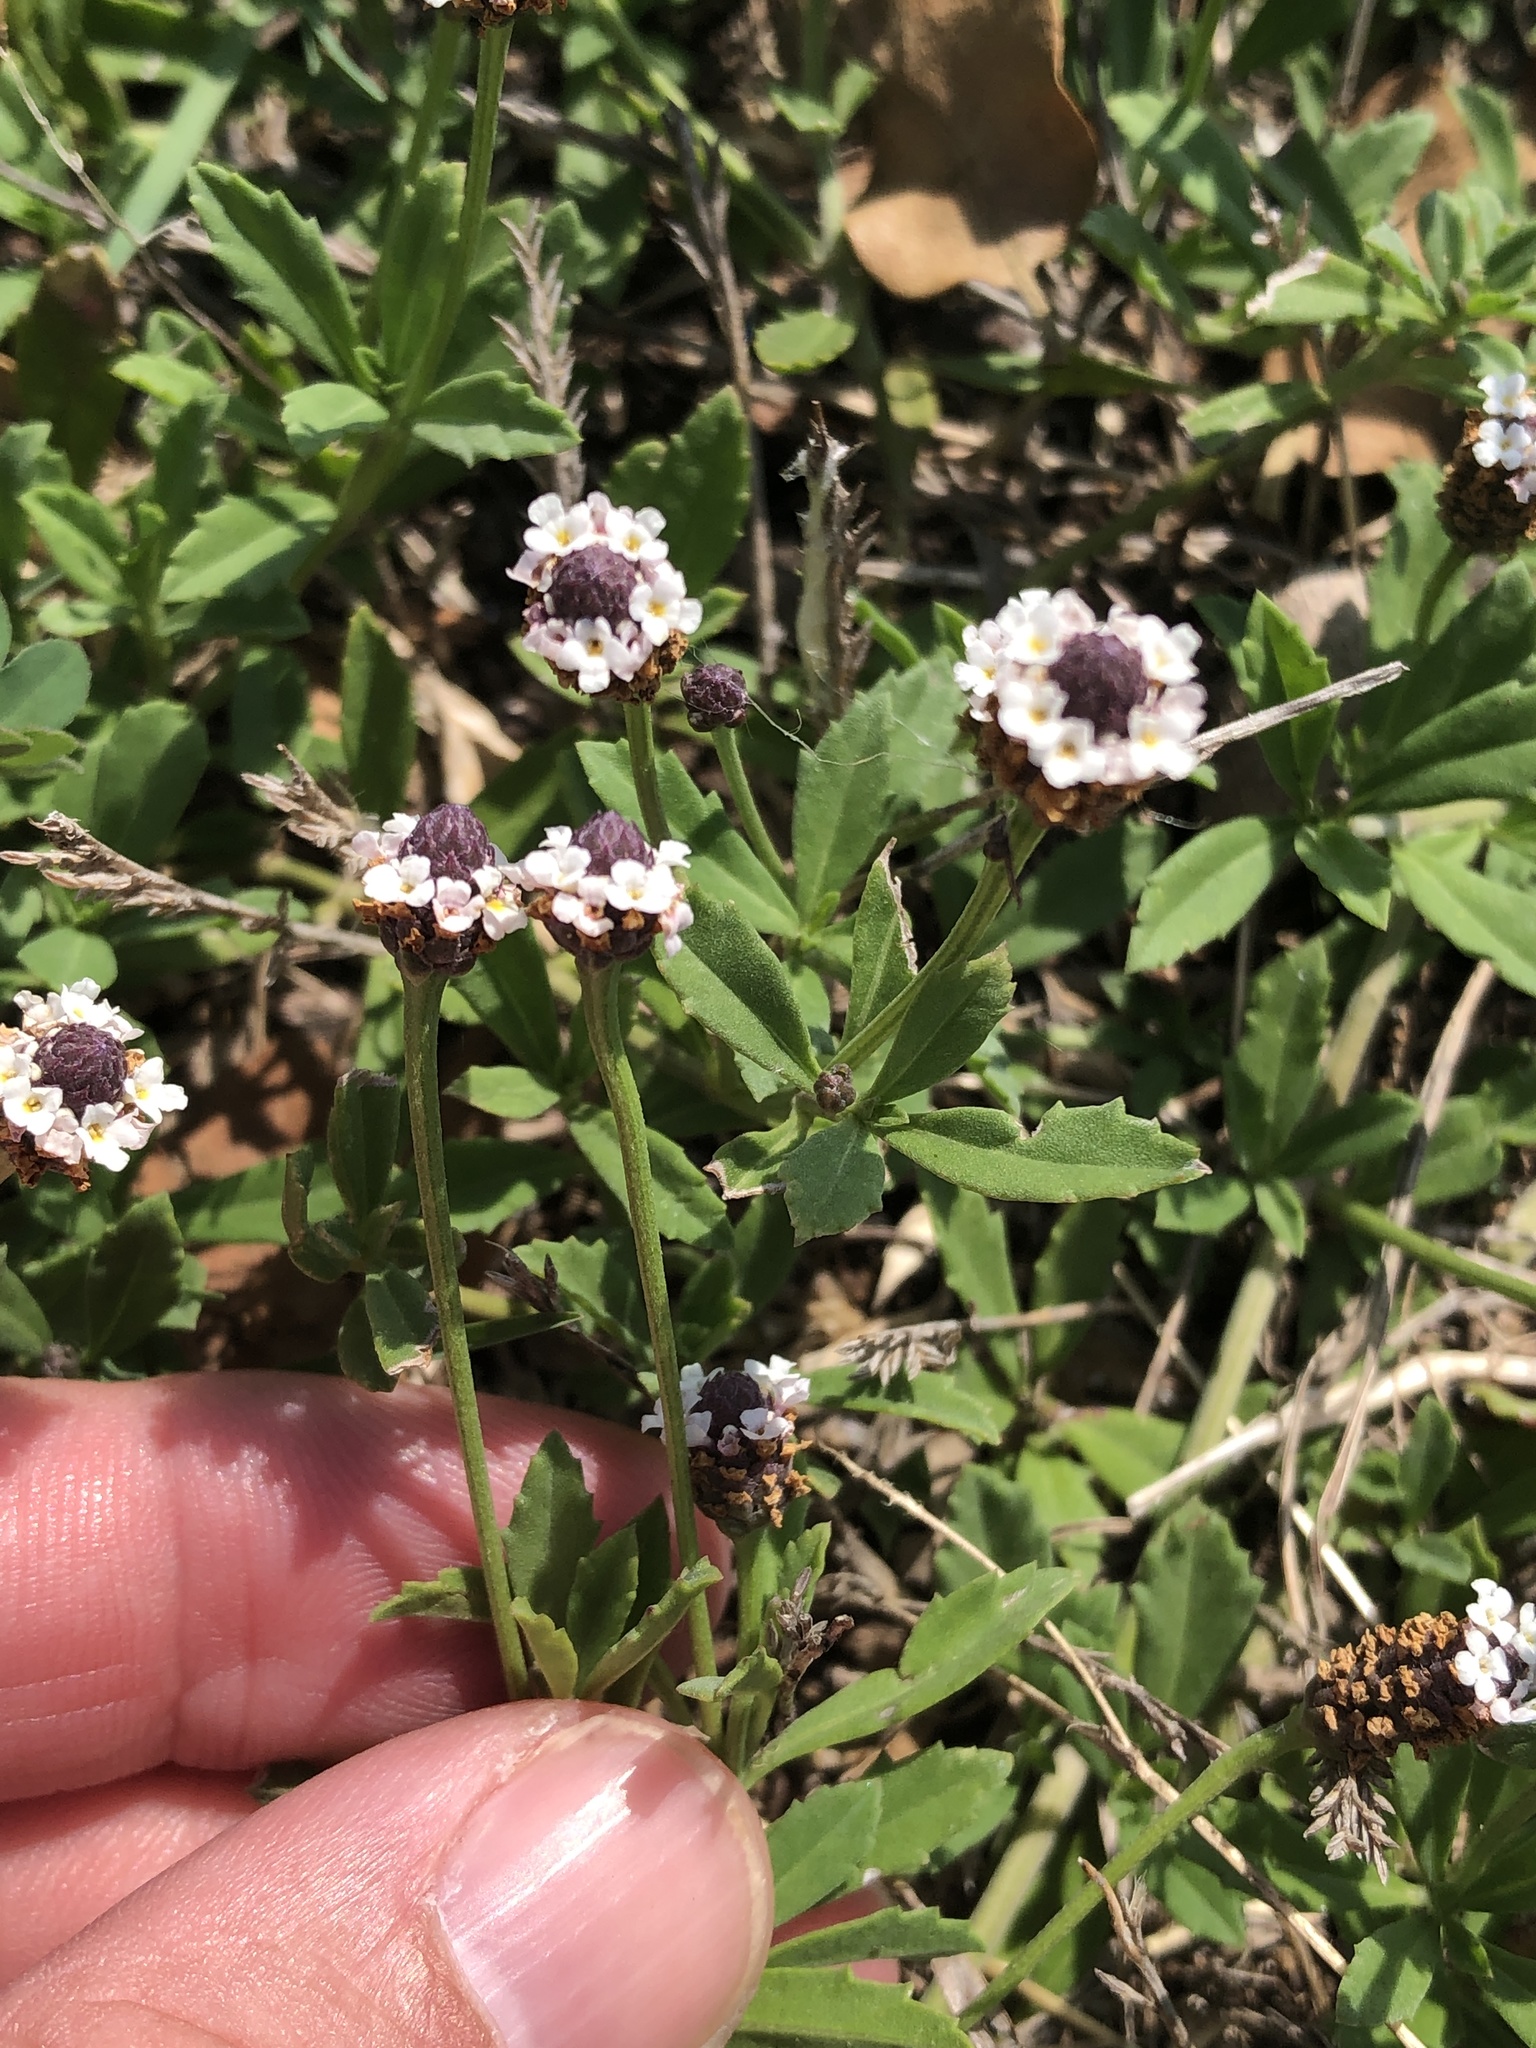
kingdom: Plantae
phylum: Tracheophyta
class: Magnoliopsida
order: Lamiales
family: Verbenaceae
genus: Phyla
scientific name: Phyla nodiflora
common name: Frogfruit
